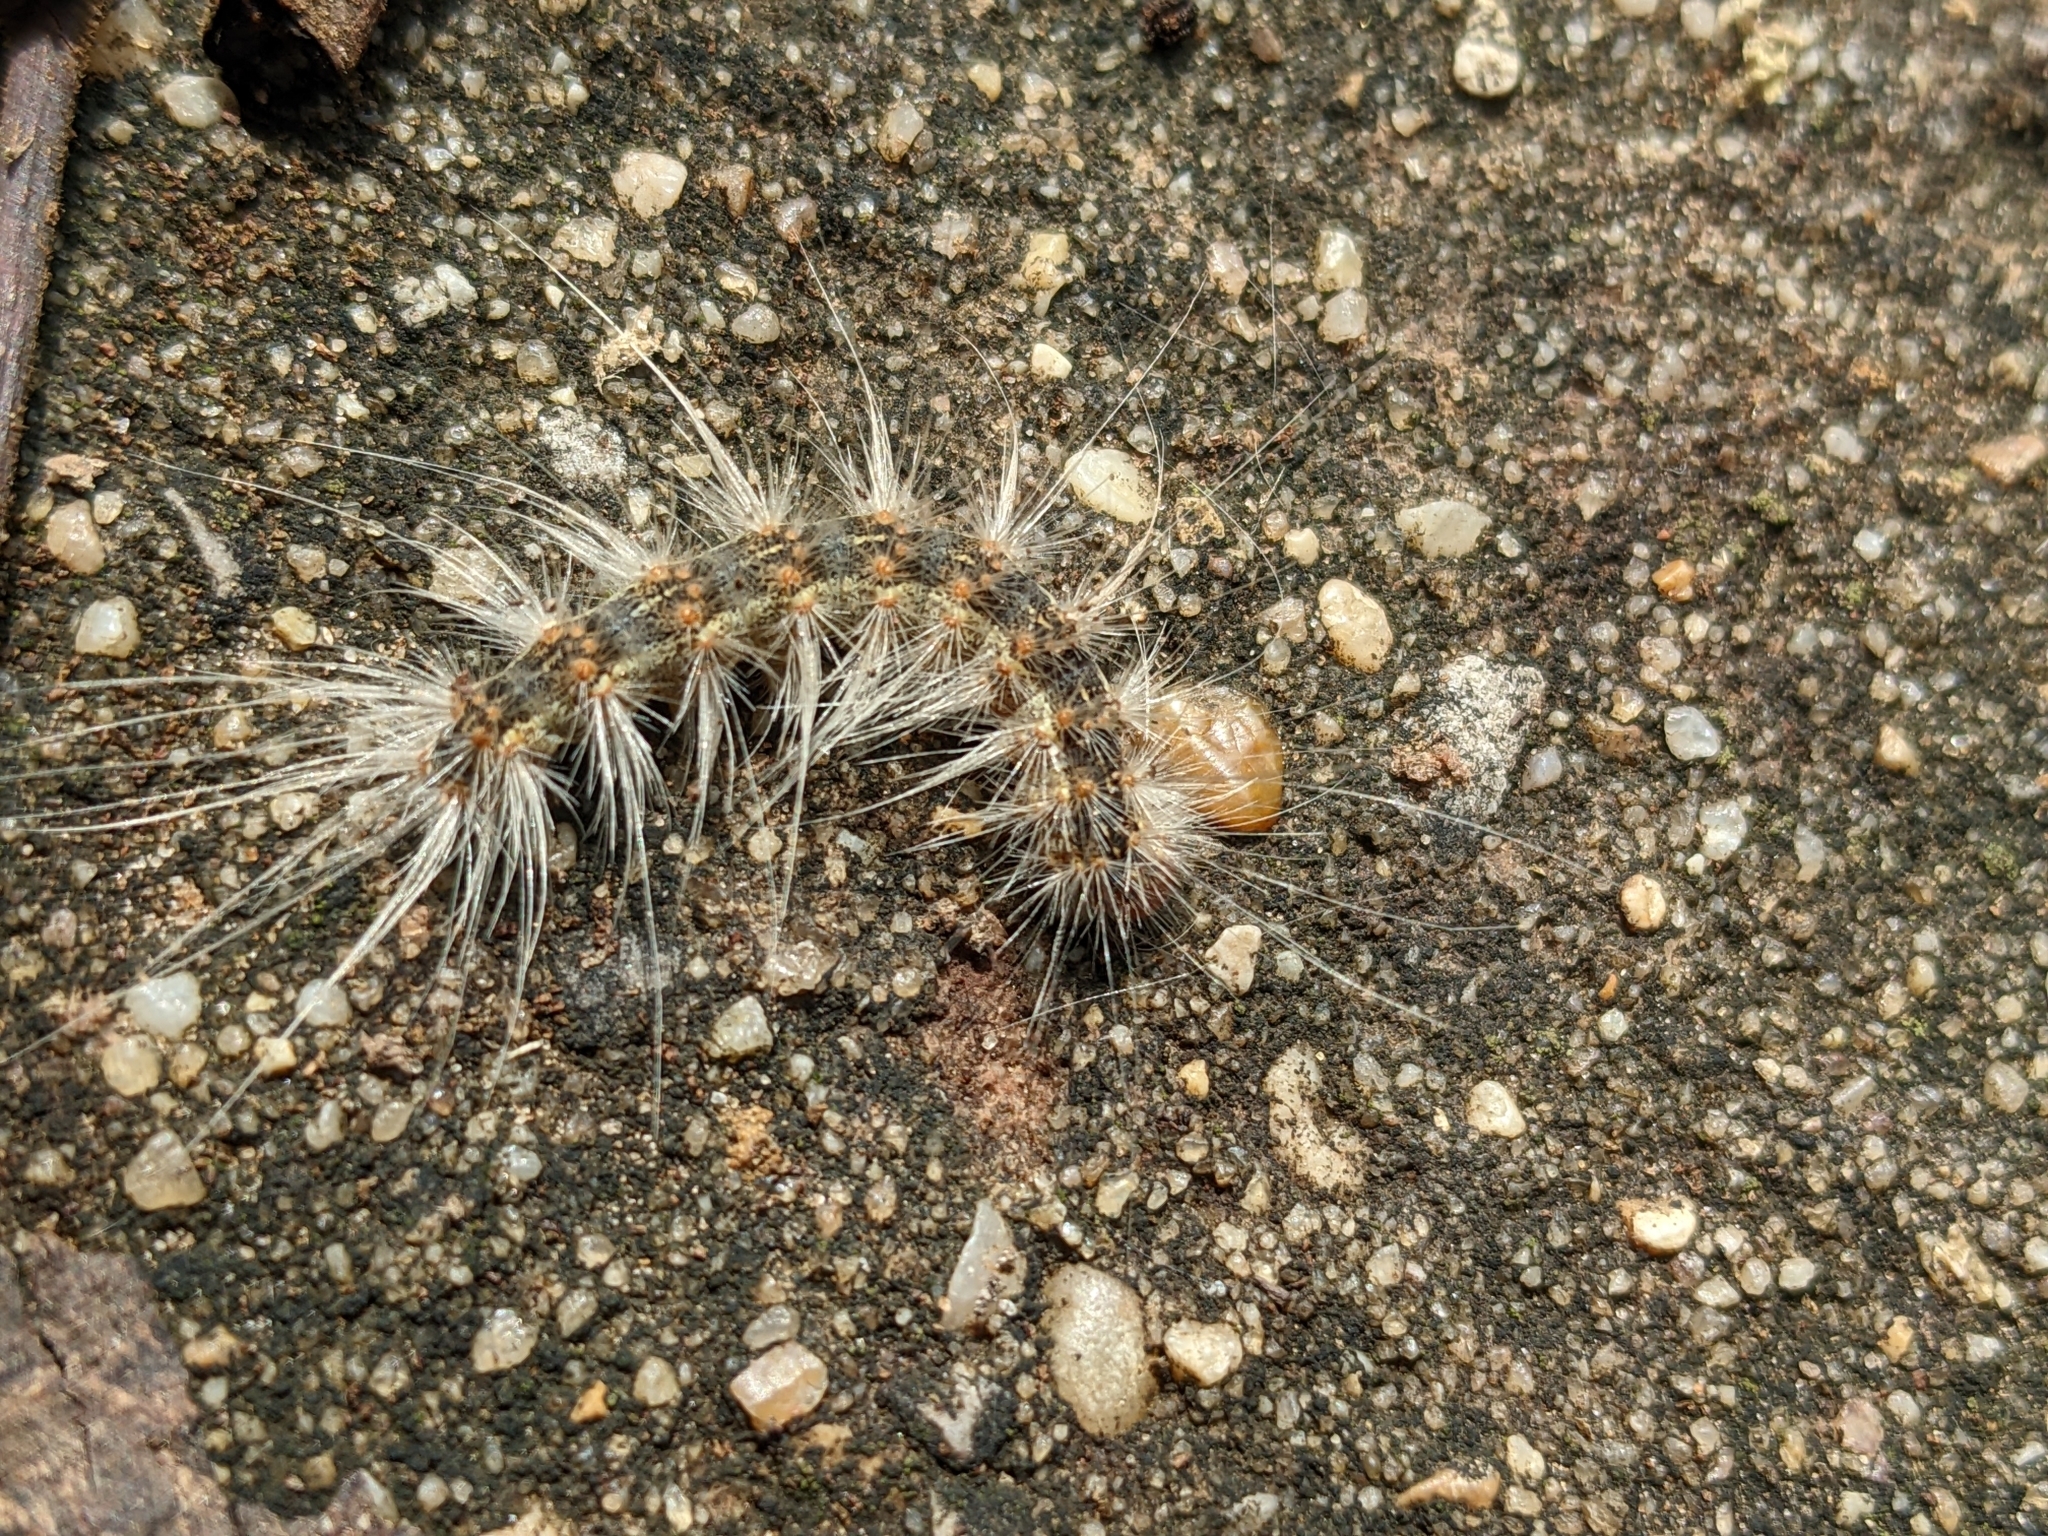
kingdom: Animalia
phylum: Arthropoda
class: Insecta
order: Lepidoptera
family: Erebidae
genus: Hyphantria
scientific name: Hyphantria cunea
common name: American white moth
